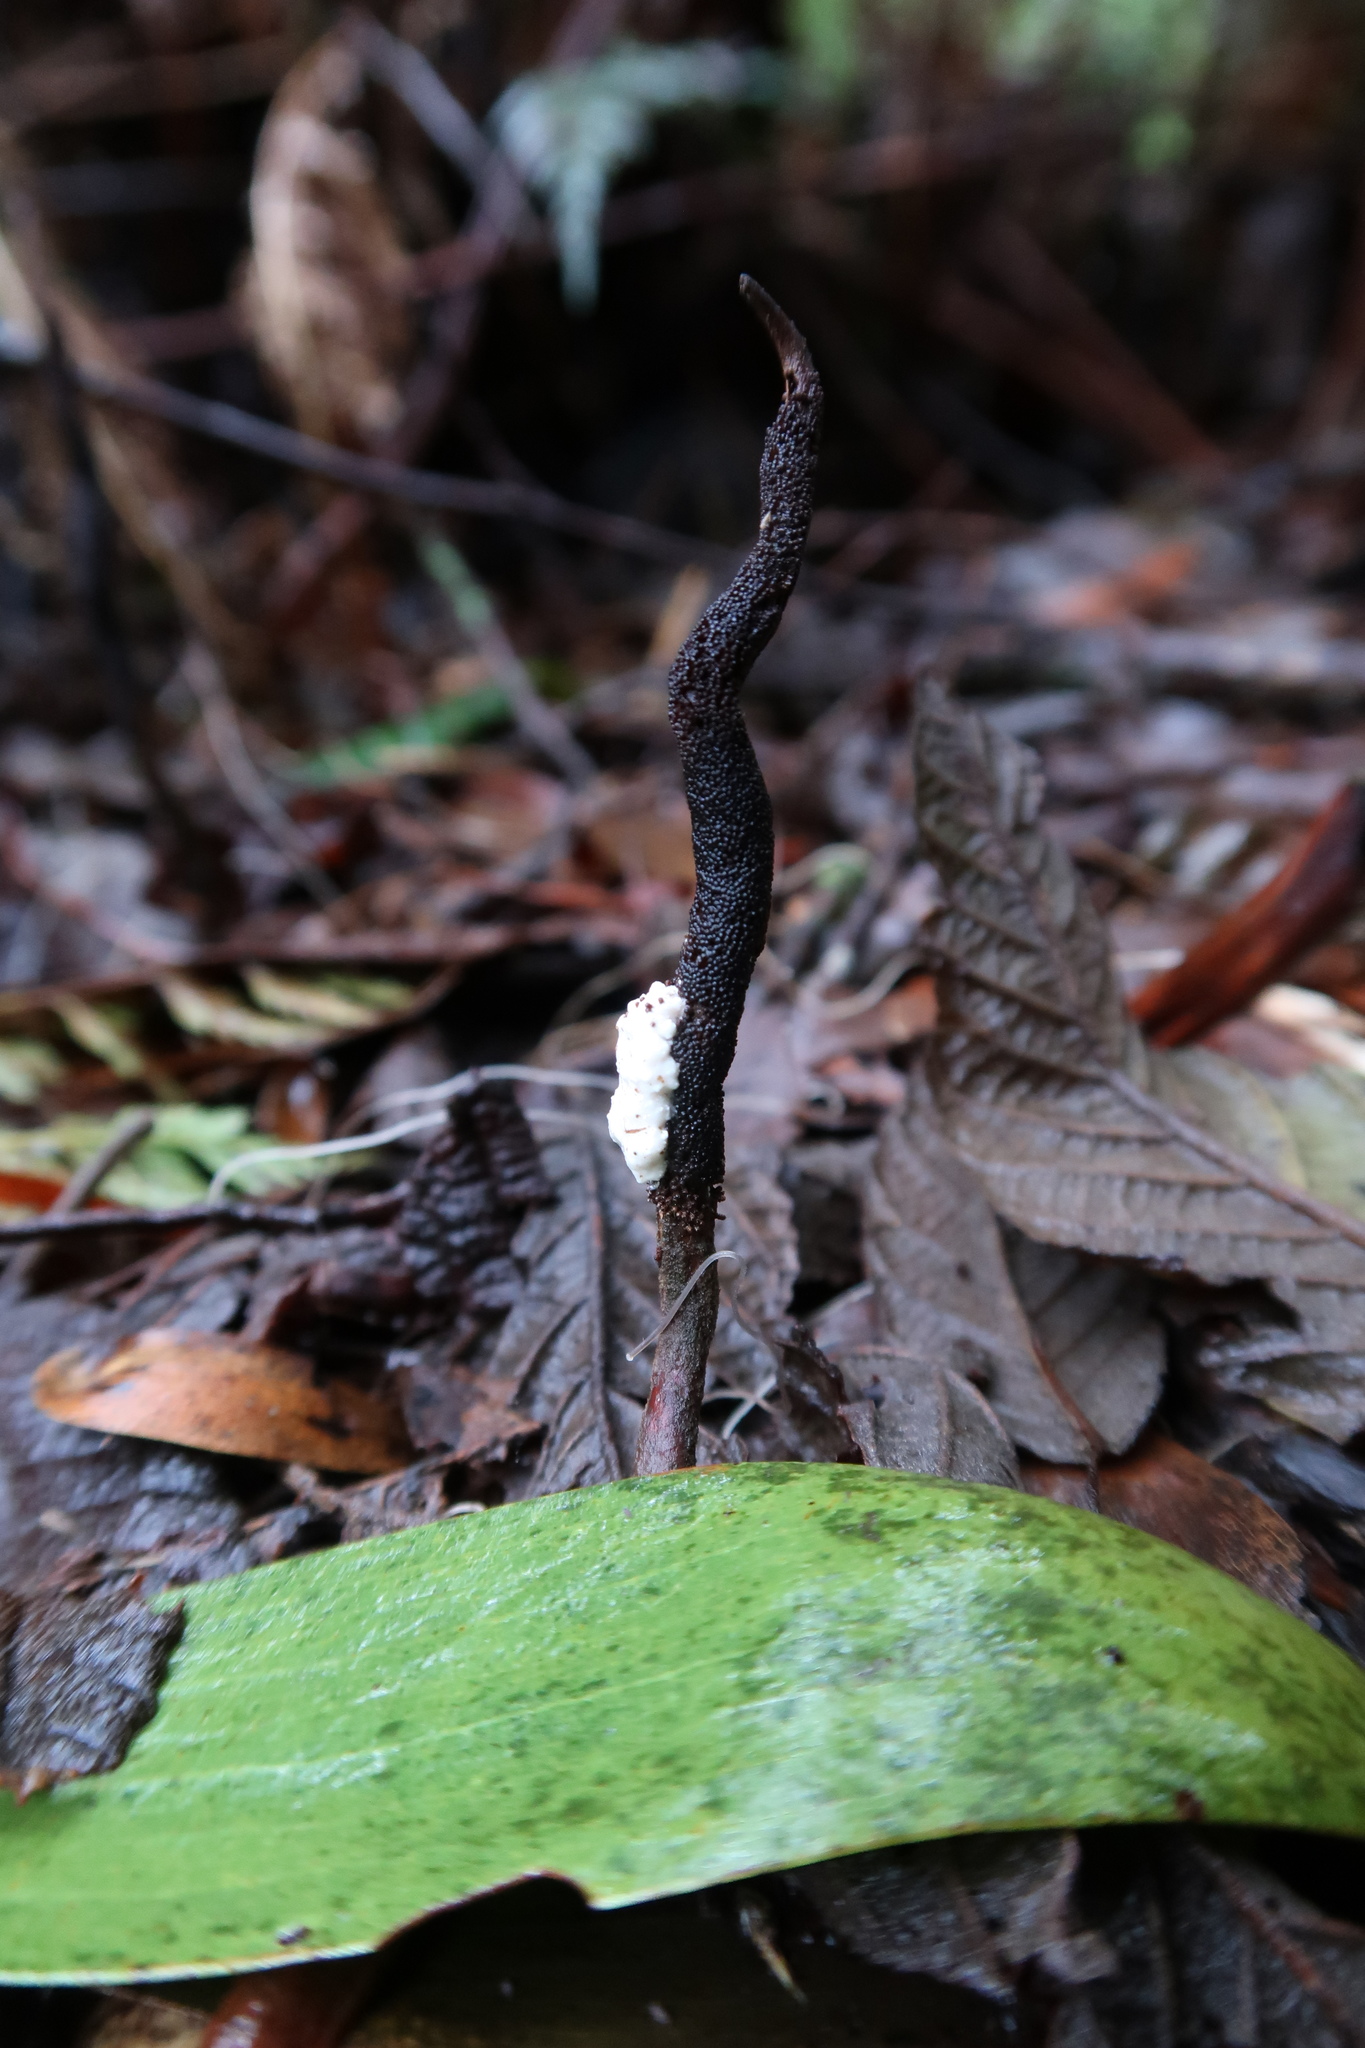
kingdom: Fungi
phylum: Ascomycota
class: Sordariomycetes
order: Hypocreales
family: Ophiocordycipitaceae
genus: Ophiocordyceps
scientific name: Ophiocordyceps robertsii
